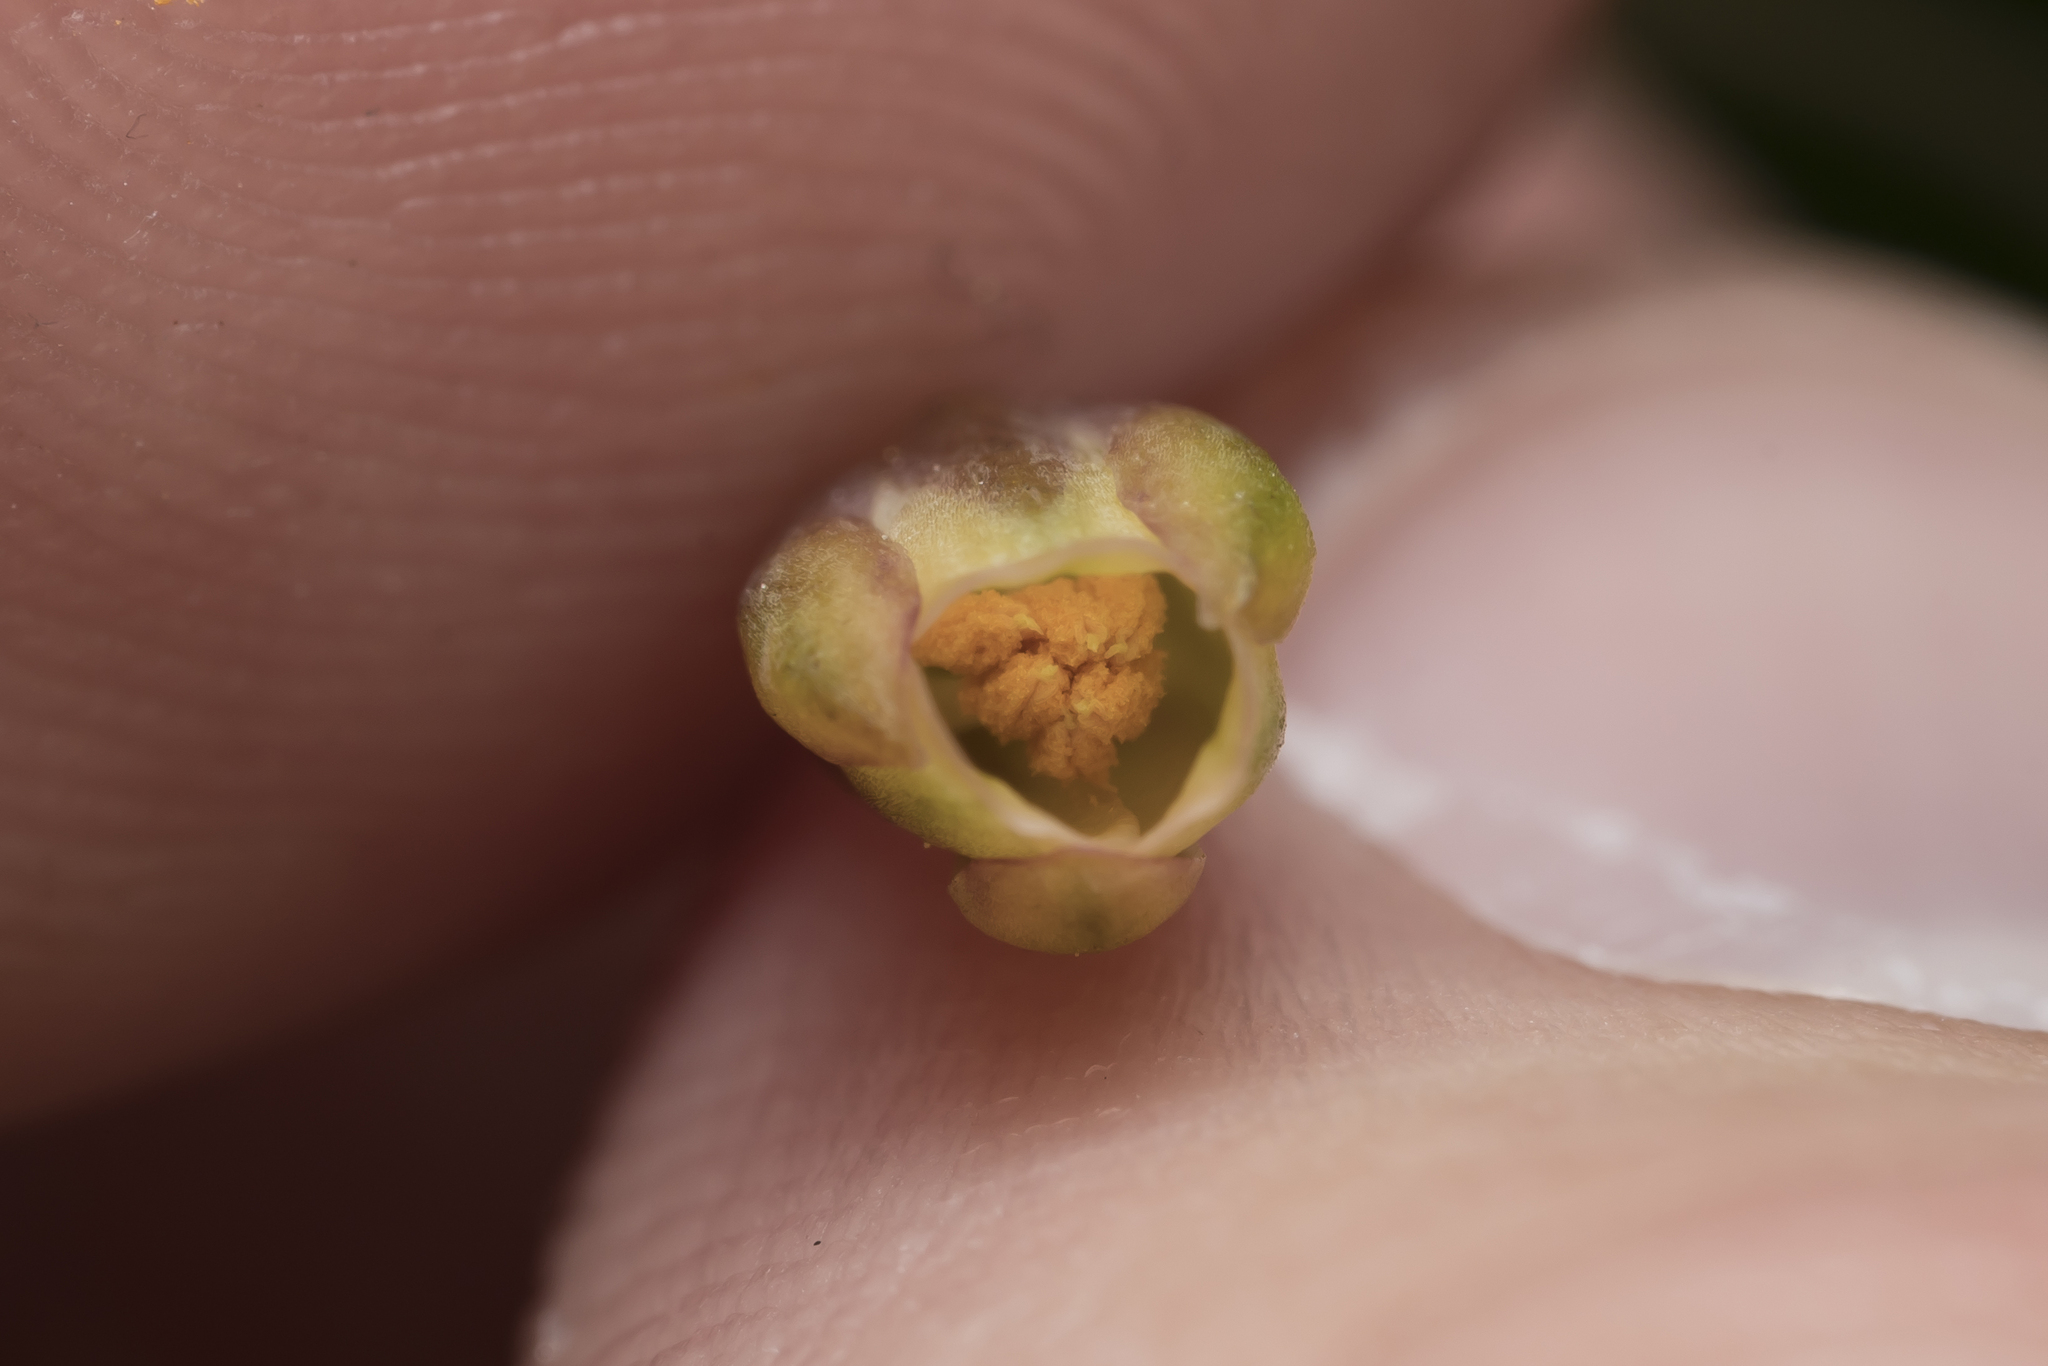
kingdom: Plantae
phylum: Tracheophyta
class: Liliopsida
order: Asparagales
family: Asparagaceae
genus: Asparagus
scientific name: Asparagus officinalis
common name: Garden asparagus
